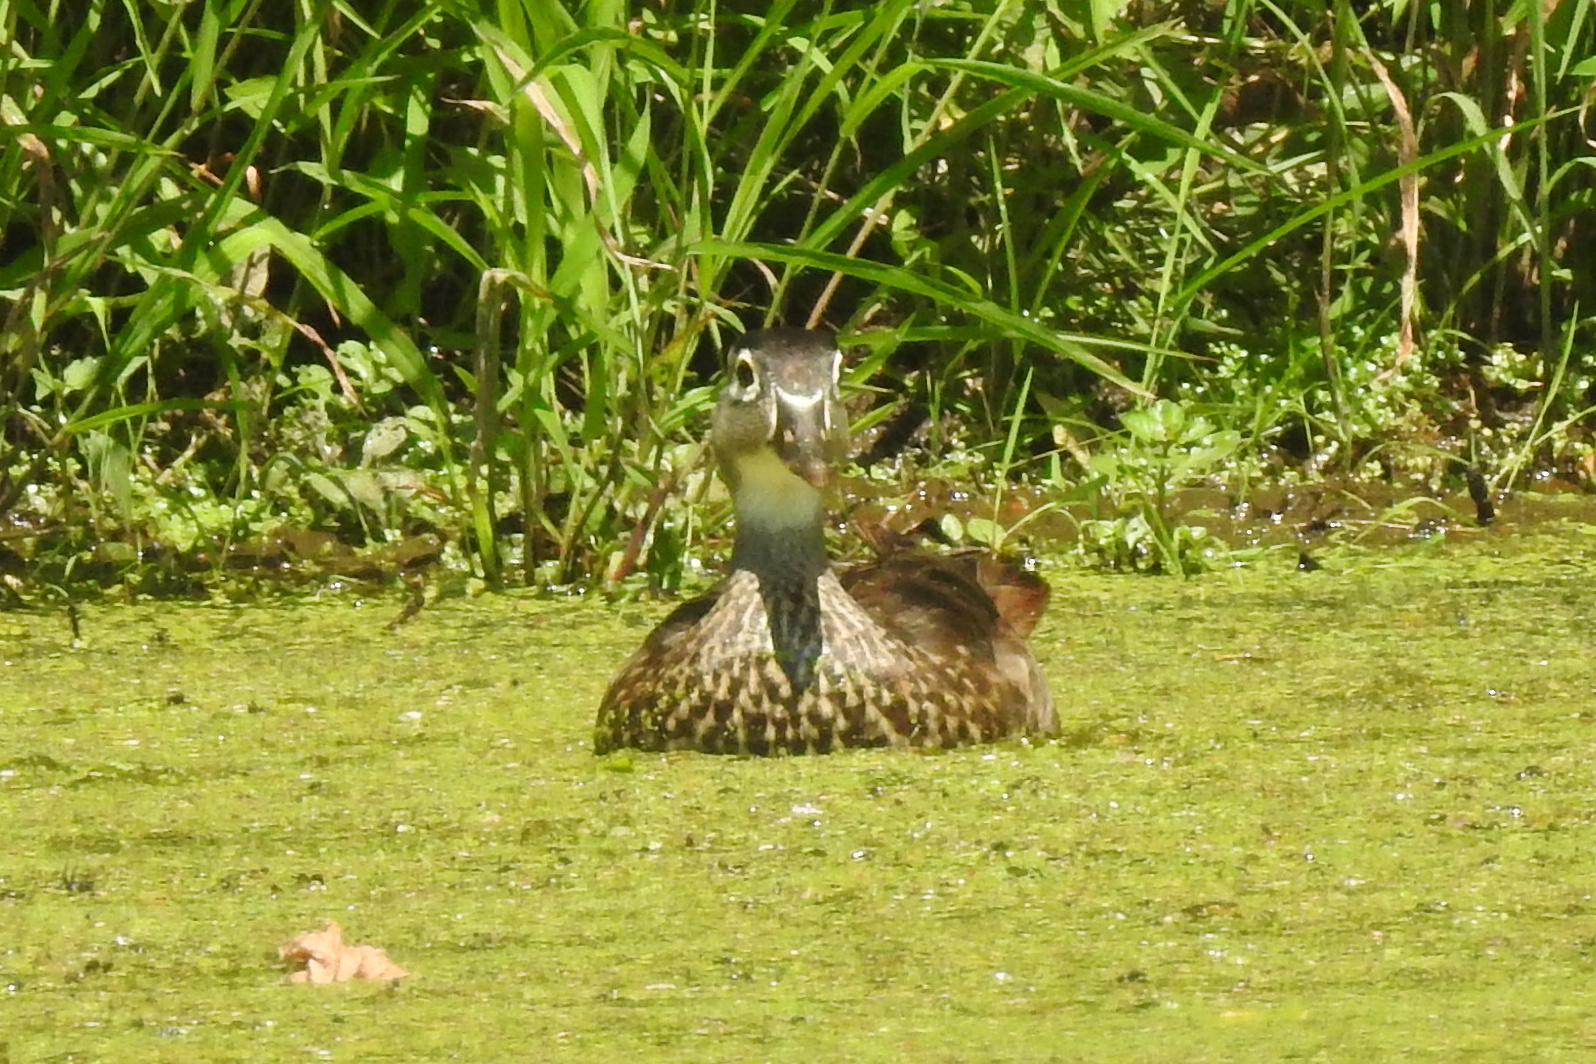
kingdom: Animalia
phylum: Chordata
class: Aves
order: Anseriformes
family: Anatidae
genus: Aix
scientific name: Aix sponsa
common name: Wood duck
